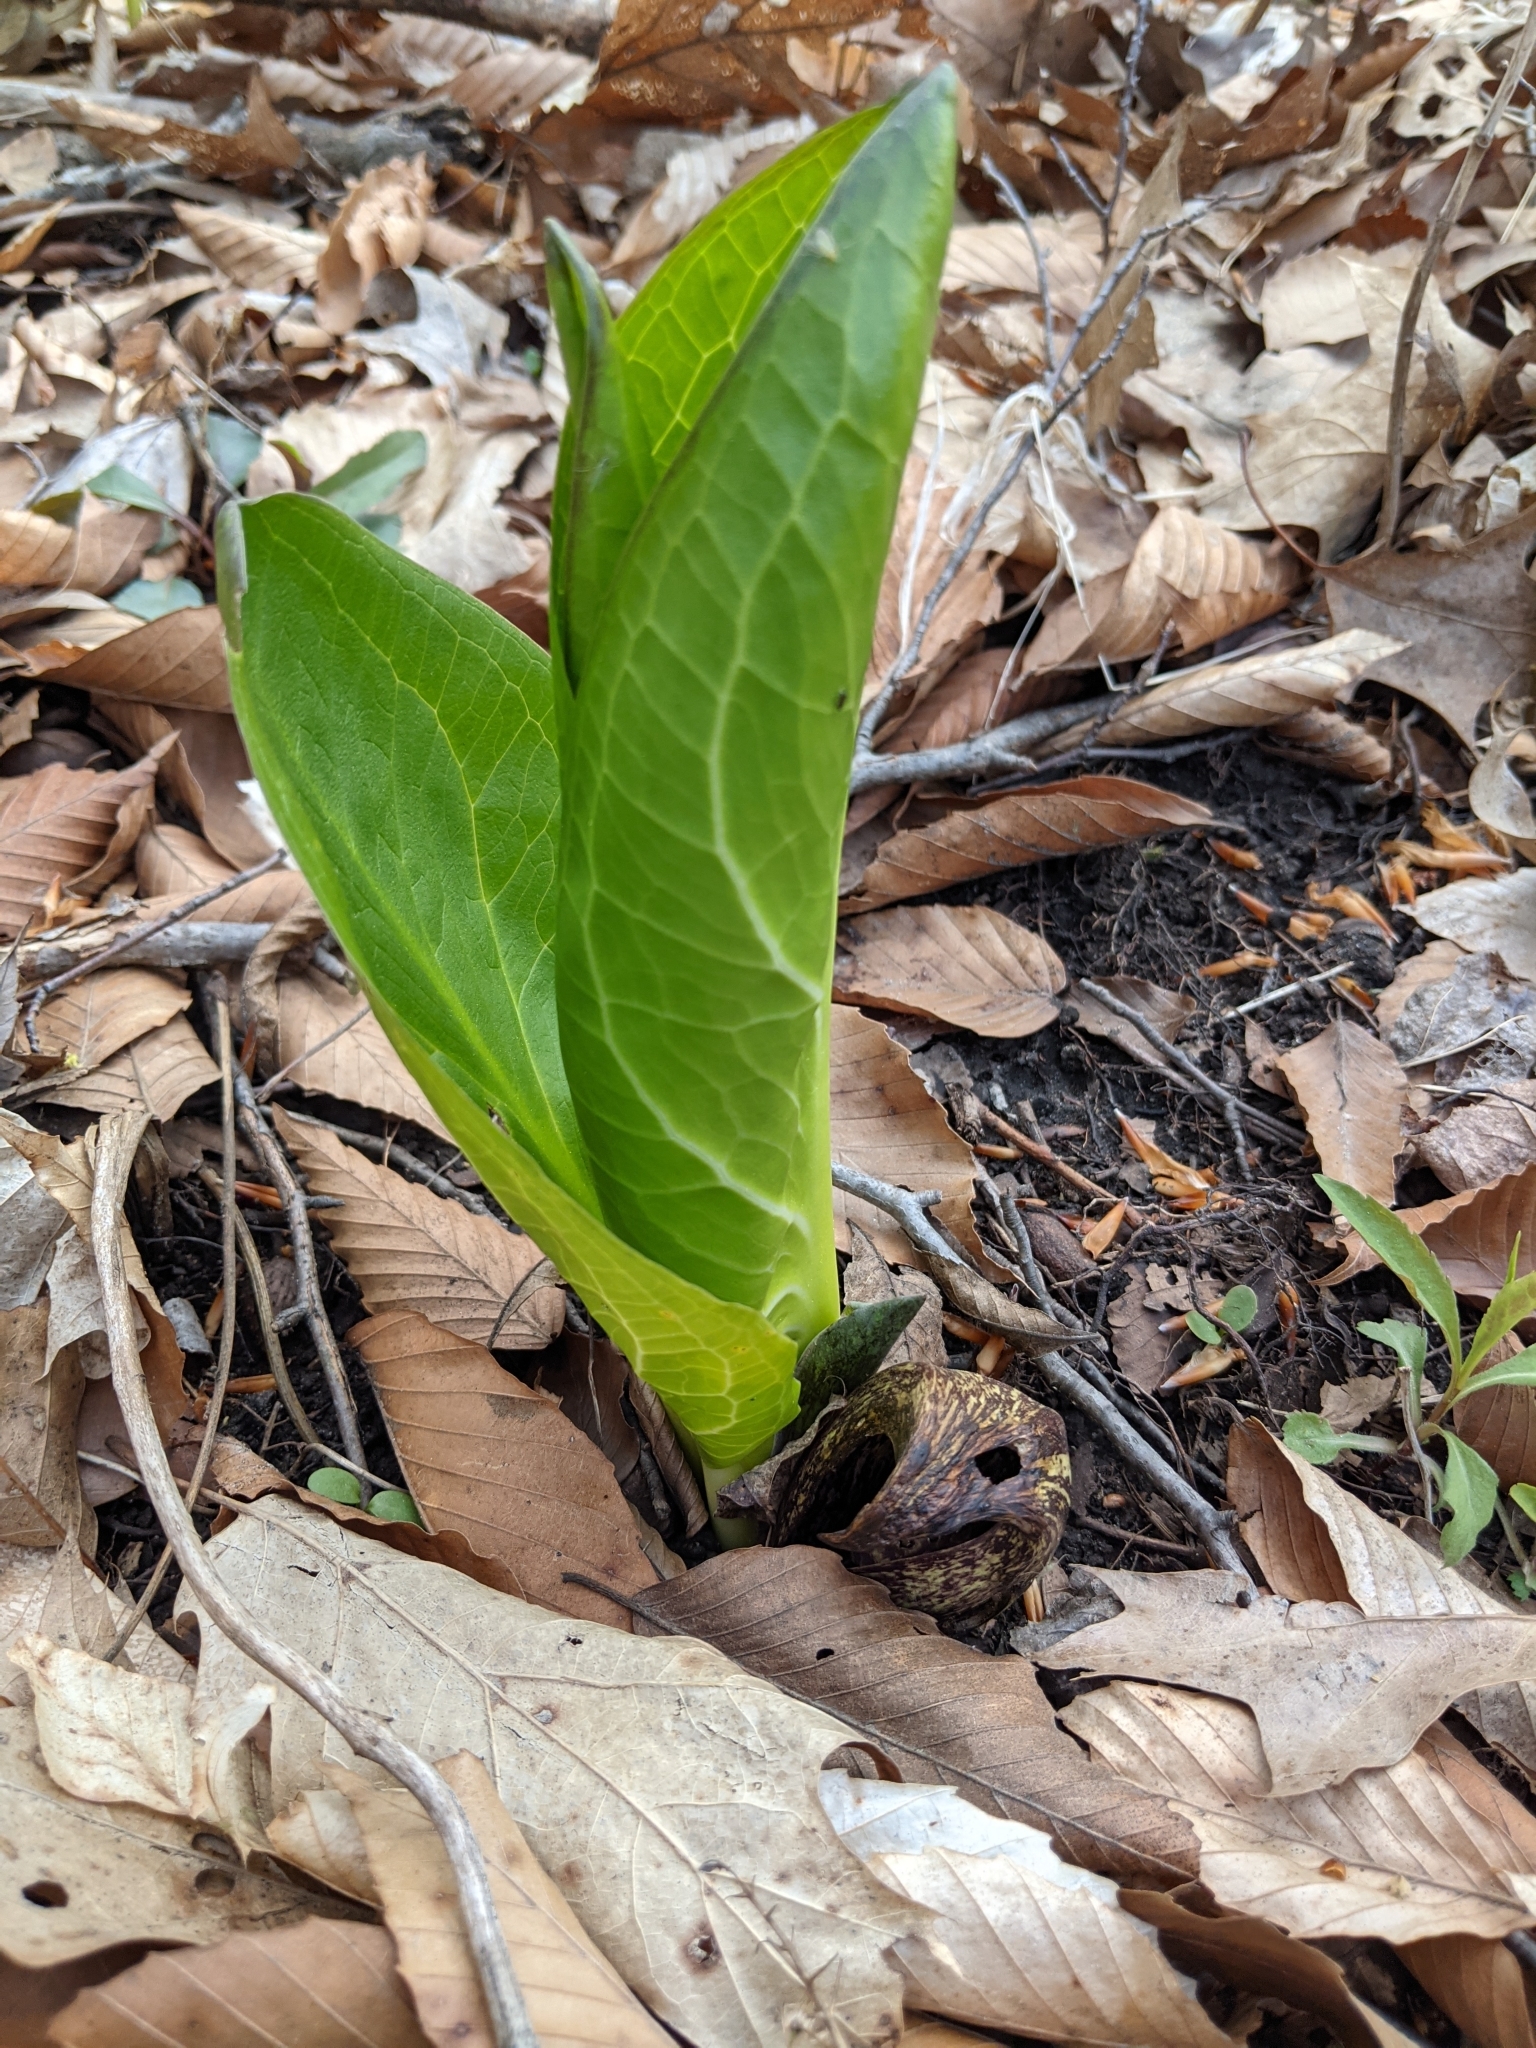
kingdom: Plantae
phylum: Tracheophyta
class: Liliopsida
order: Alismatales
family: Araceae
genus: Symplocarpus
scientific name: Symplocarpus foetidus
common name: Eastern skunk cabbage
